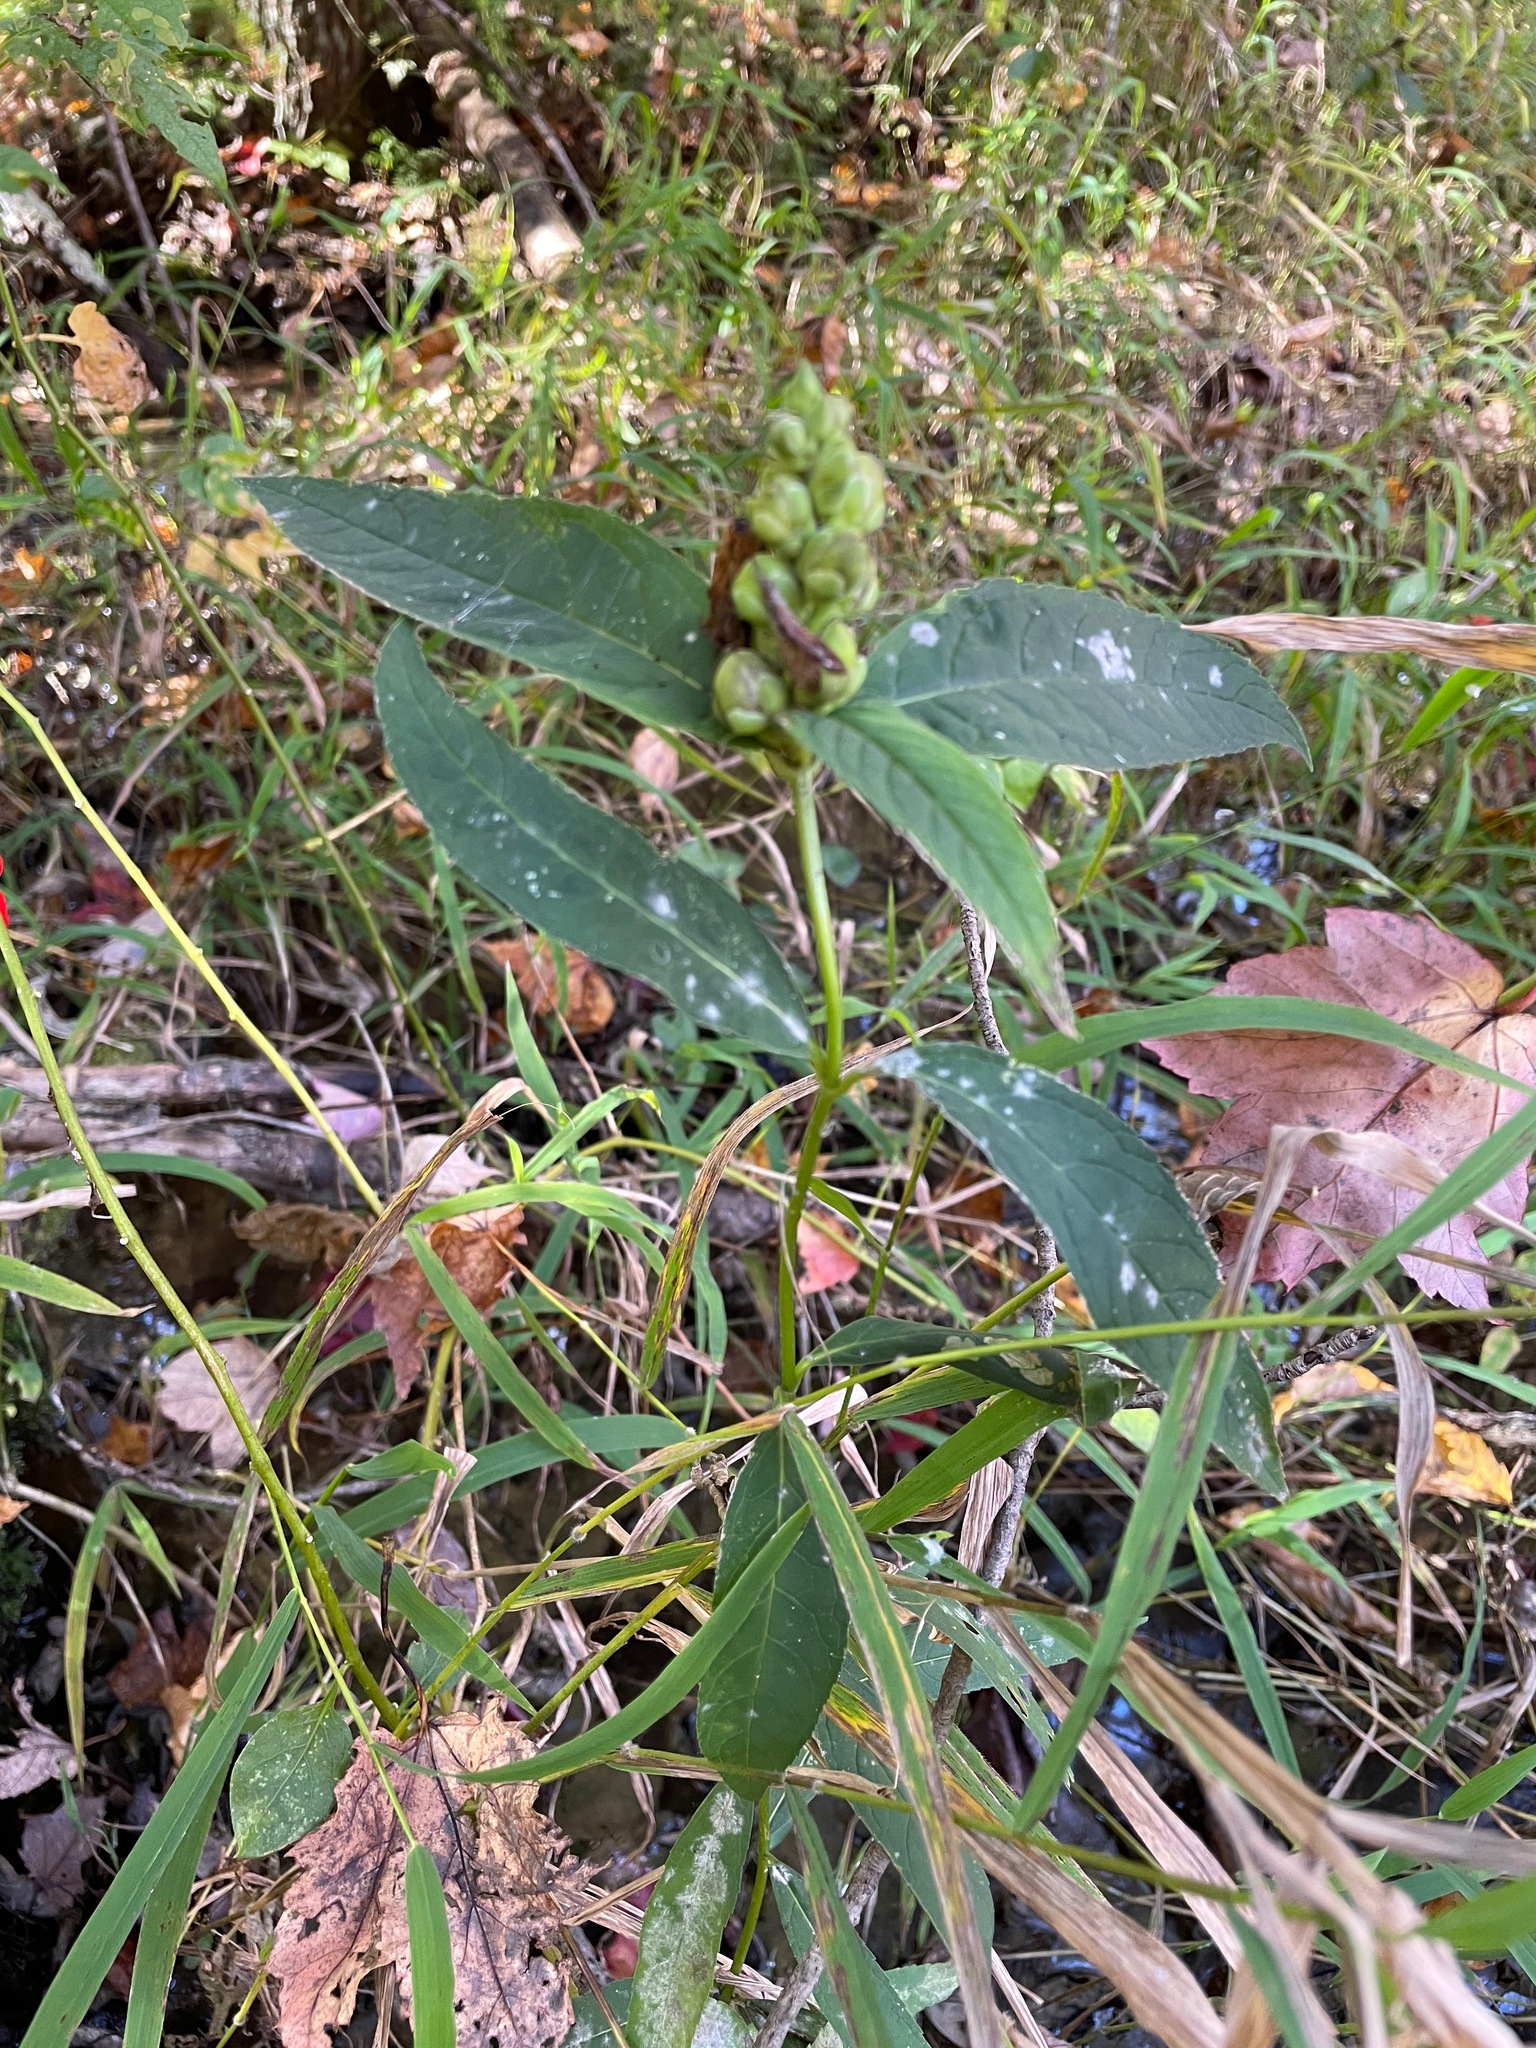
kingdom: Plantae
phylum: Tracheophyta
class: Magnoliopsida
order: Lamiales
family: Plantaginaceae
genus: Chelone
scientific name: Chelone glabra
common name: Snakehead
